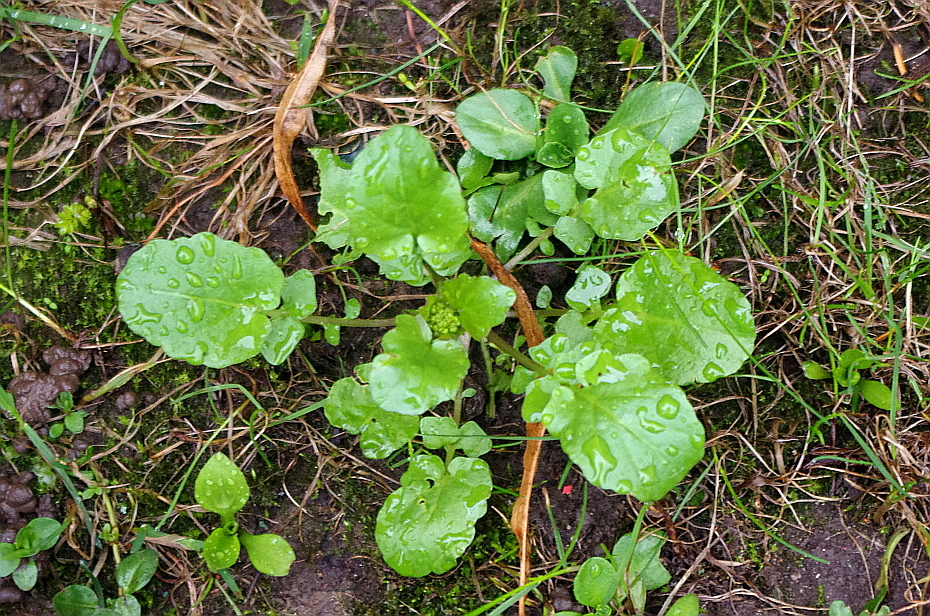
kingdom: Plantae
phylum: Tracheophyta
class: Magnoliopsida
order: Brassicales
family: Brassicaceae
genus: Barbarea
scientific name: Barbarea vulgaris
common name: Cressy-greens
